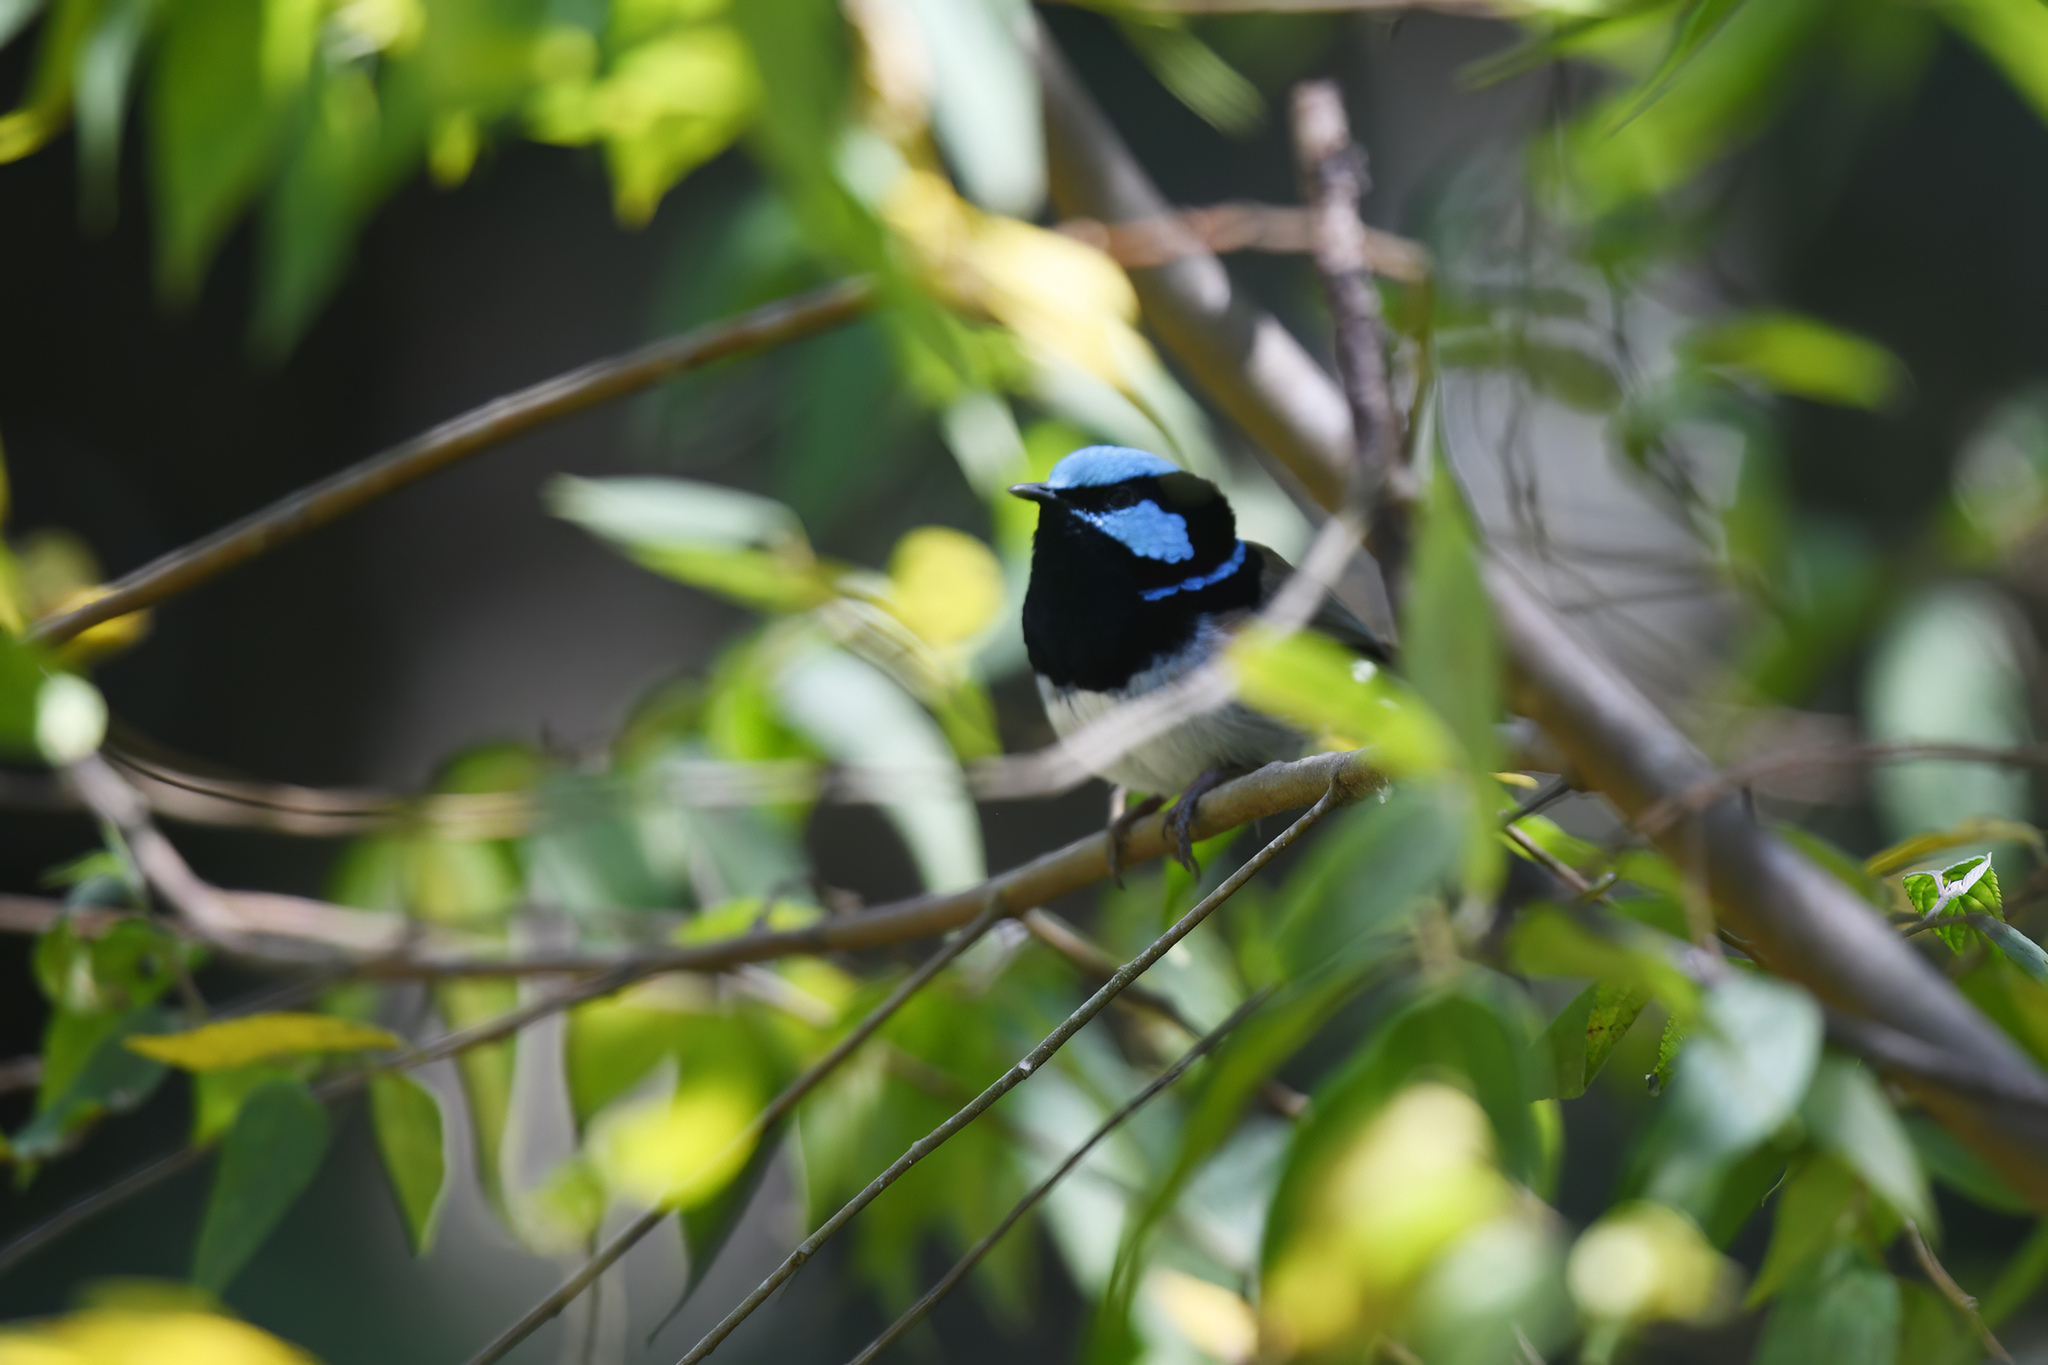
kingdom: Animalia
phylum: Chordata
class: Aves
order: Passeriformes
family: Maluridae
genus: Malurus
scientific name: Malurus cyaneus
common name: Superb fairywren
